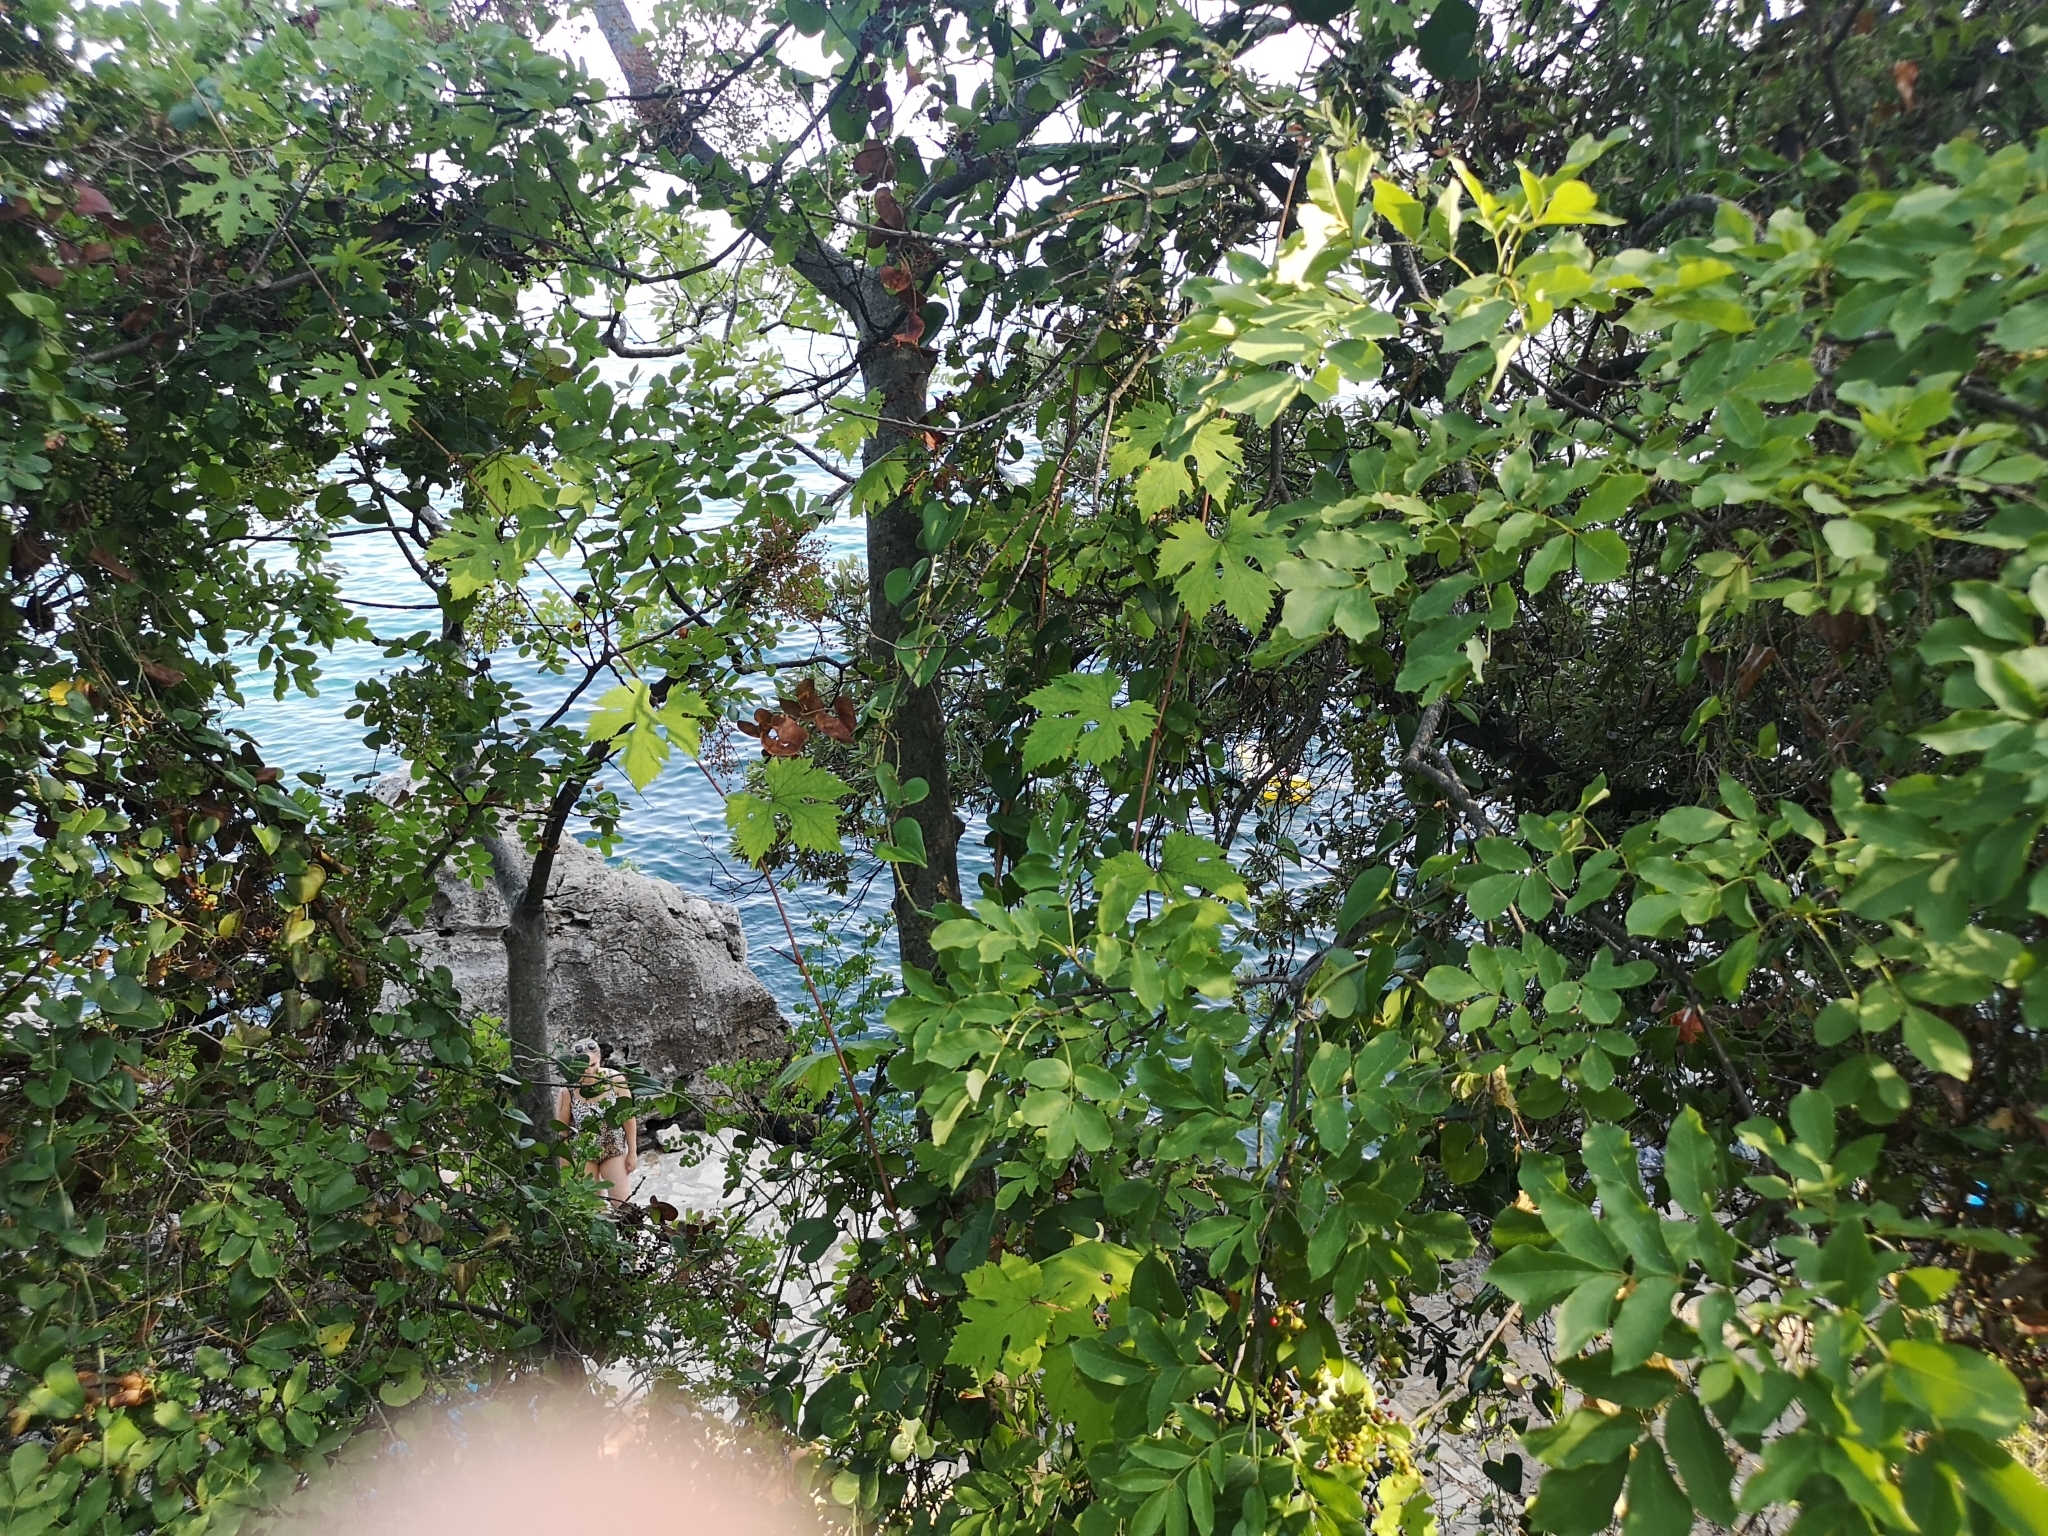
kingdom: Plantae
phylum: Tracheophyta
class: Magnoliopsida
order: Vitales
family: Vitaceae
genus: Vitis
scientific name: Vitis vinifera
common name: Grape-vine
